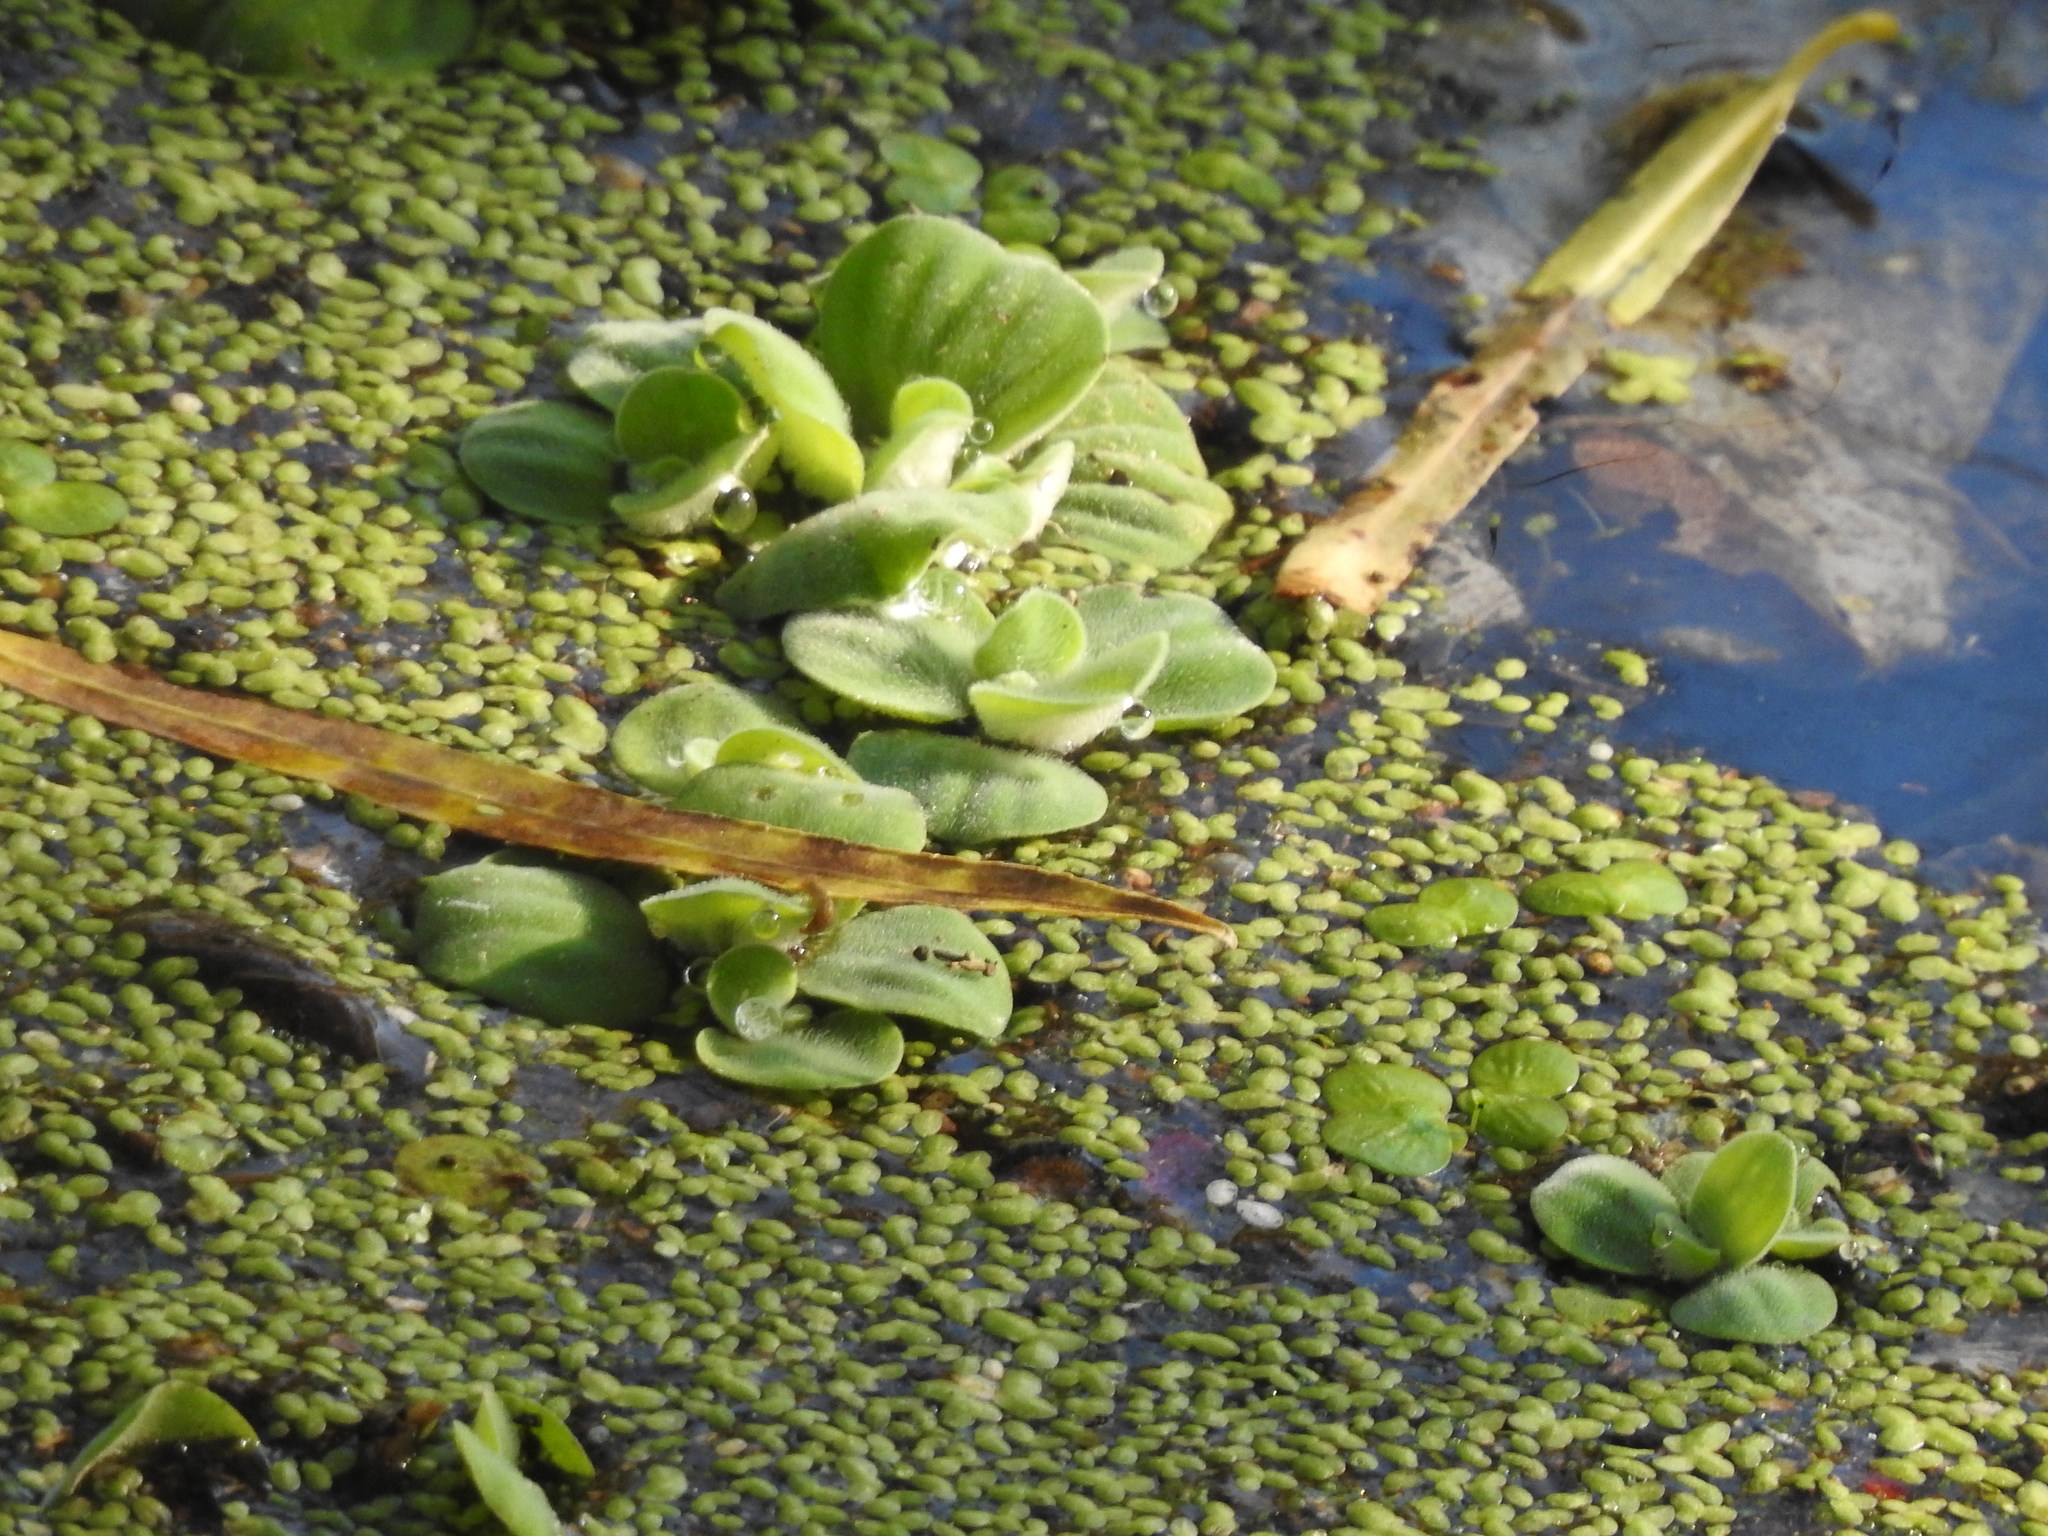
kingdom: Plantae
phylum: Tracheophyta
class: Liliopsida
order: Alismatales
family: Araceae
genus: Pistia
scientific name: Pistia stratiotes
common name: Water lettuce
